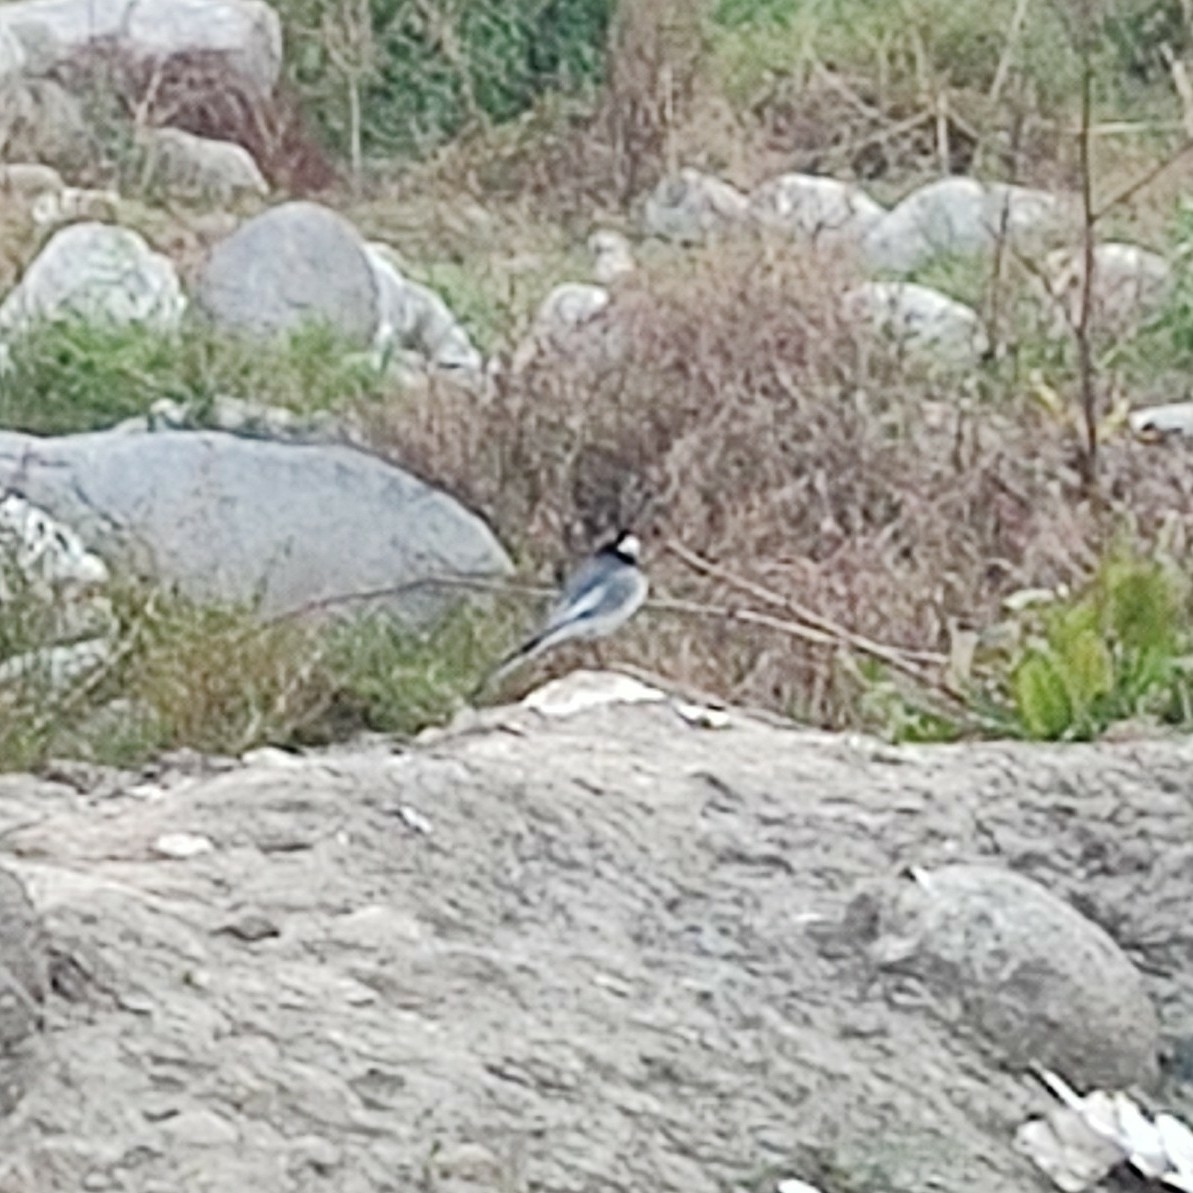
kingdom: Animalia
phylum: Chordata
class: Aves
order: Passeriformes
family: Motacillidae
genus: Motacilla
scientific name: Motacilla alba
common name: White wagtail
